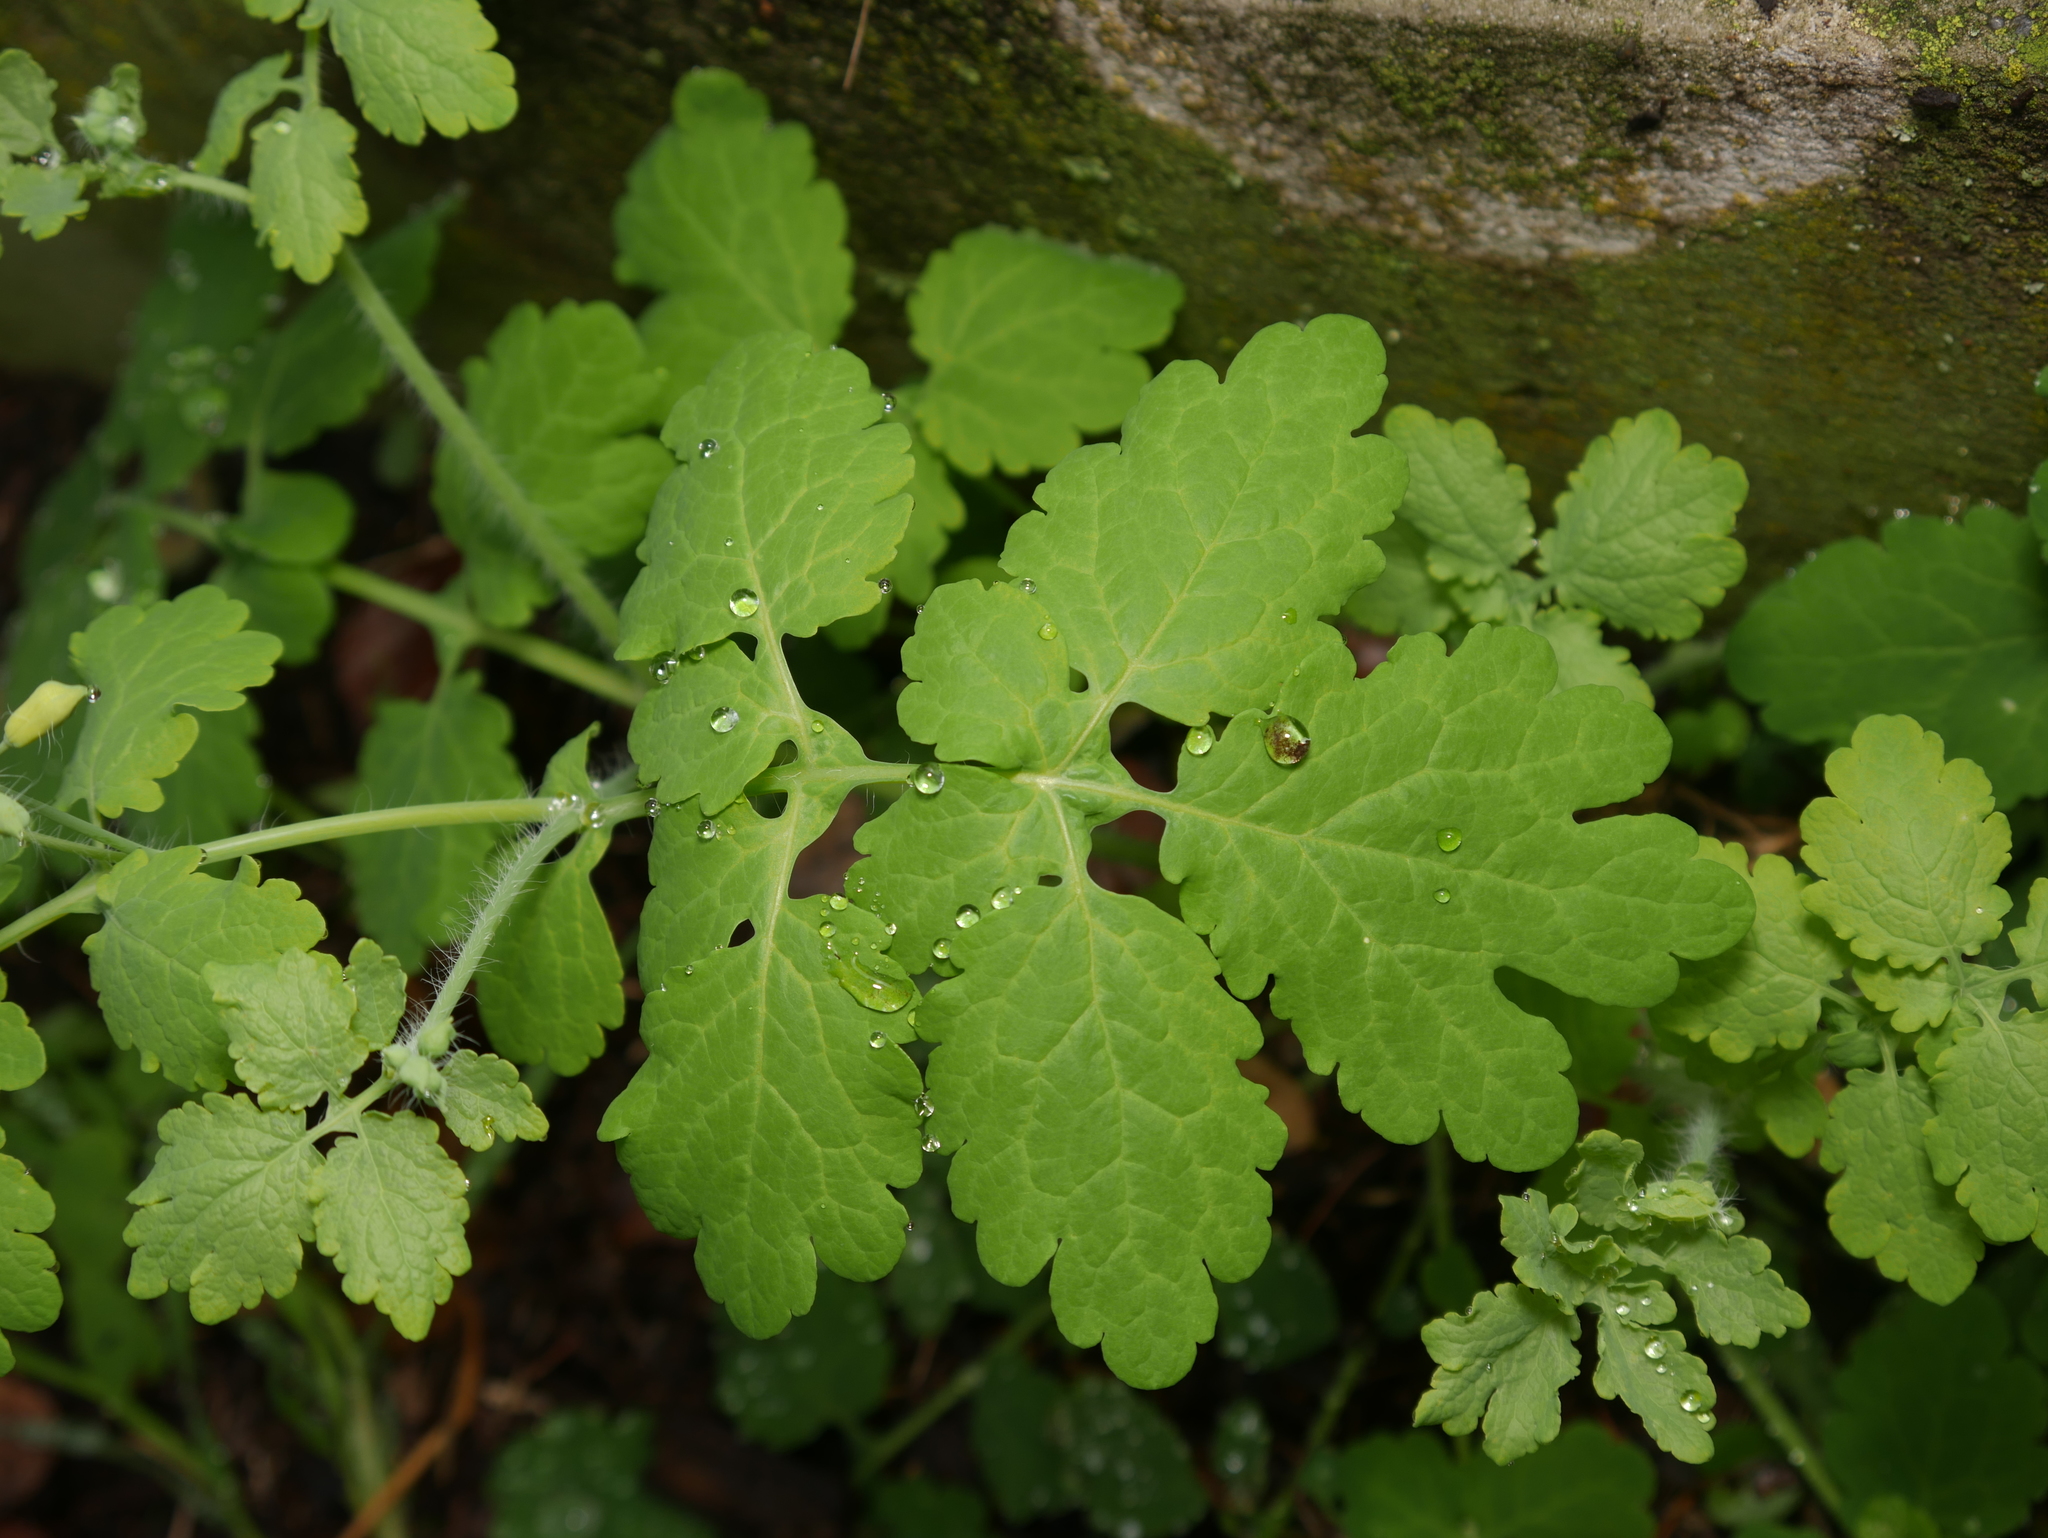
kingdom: Plantae
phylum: Tracheophyta
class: Magnoliopsida
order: Ranunculales
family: Papaveraceae
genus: Chelidonium
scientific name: Chelidonium majus
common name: Greater celandine
